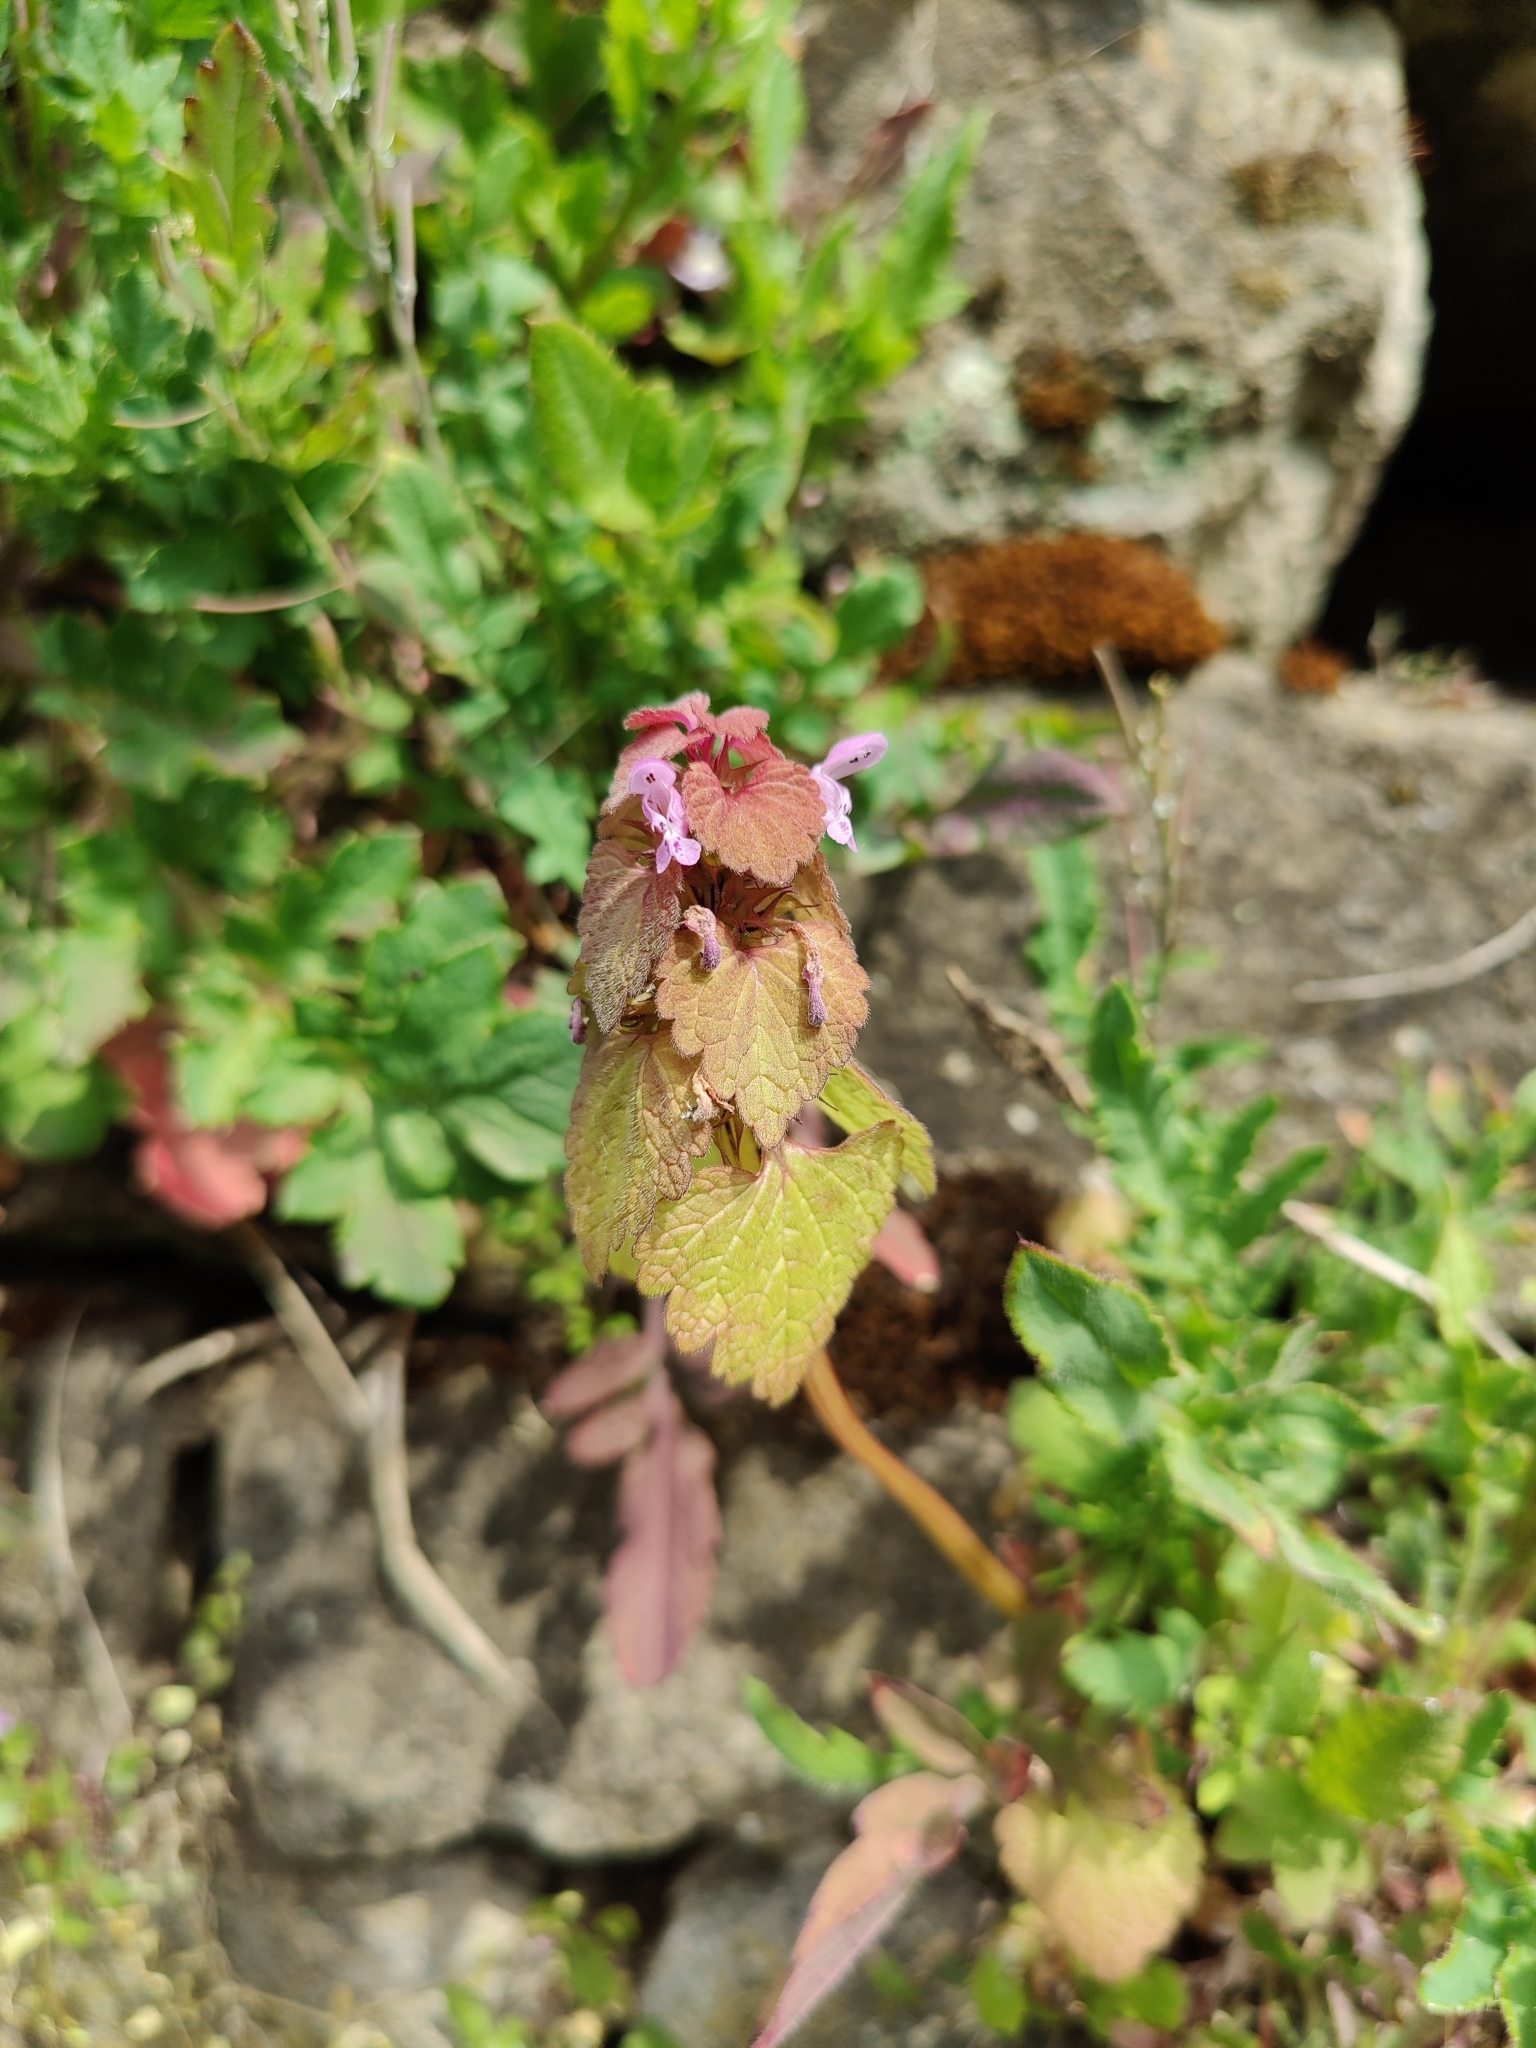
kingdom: Plantae
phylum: Tracheophyta
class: Magnoliopsida
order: Lamiales
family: Lamiaceae
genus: Lamium
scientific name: Lamium purpureum
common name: Red dead-nettle
